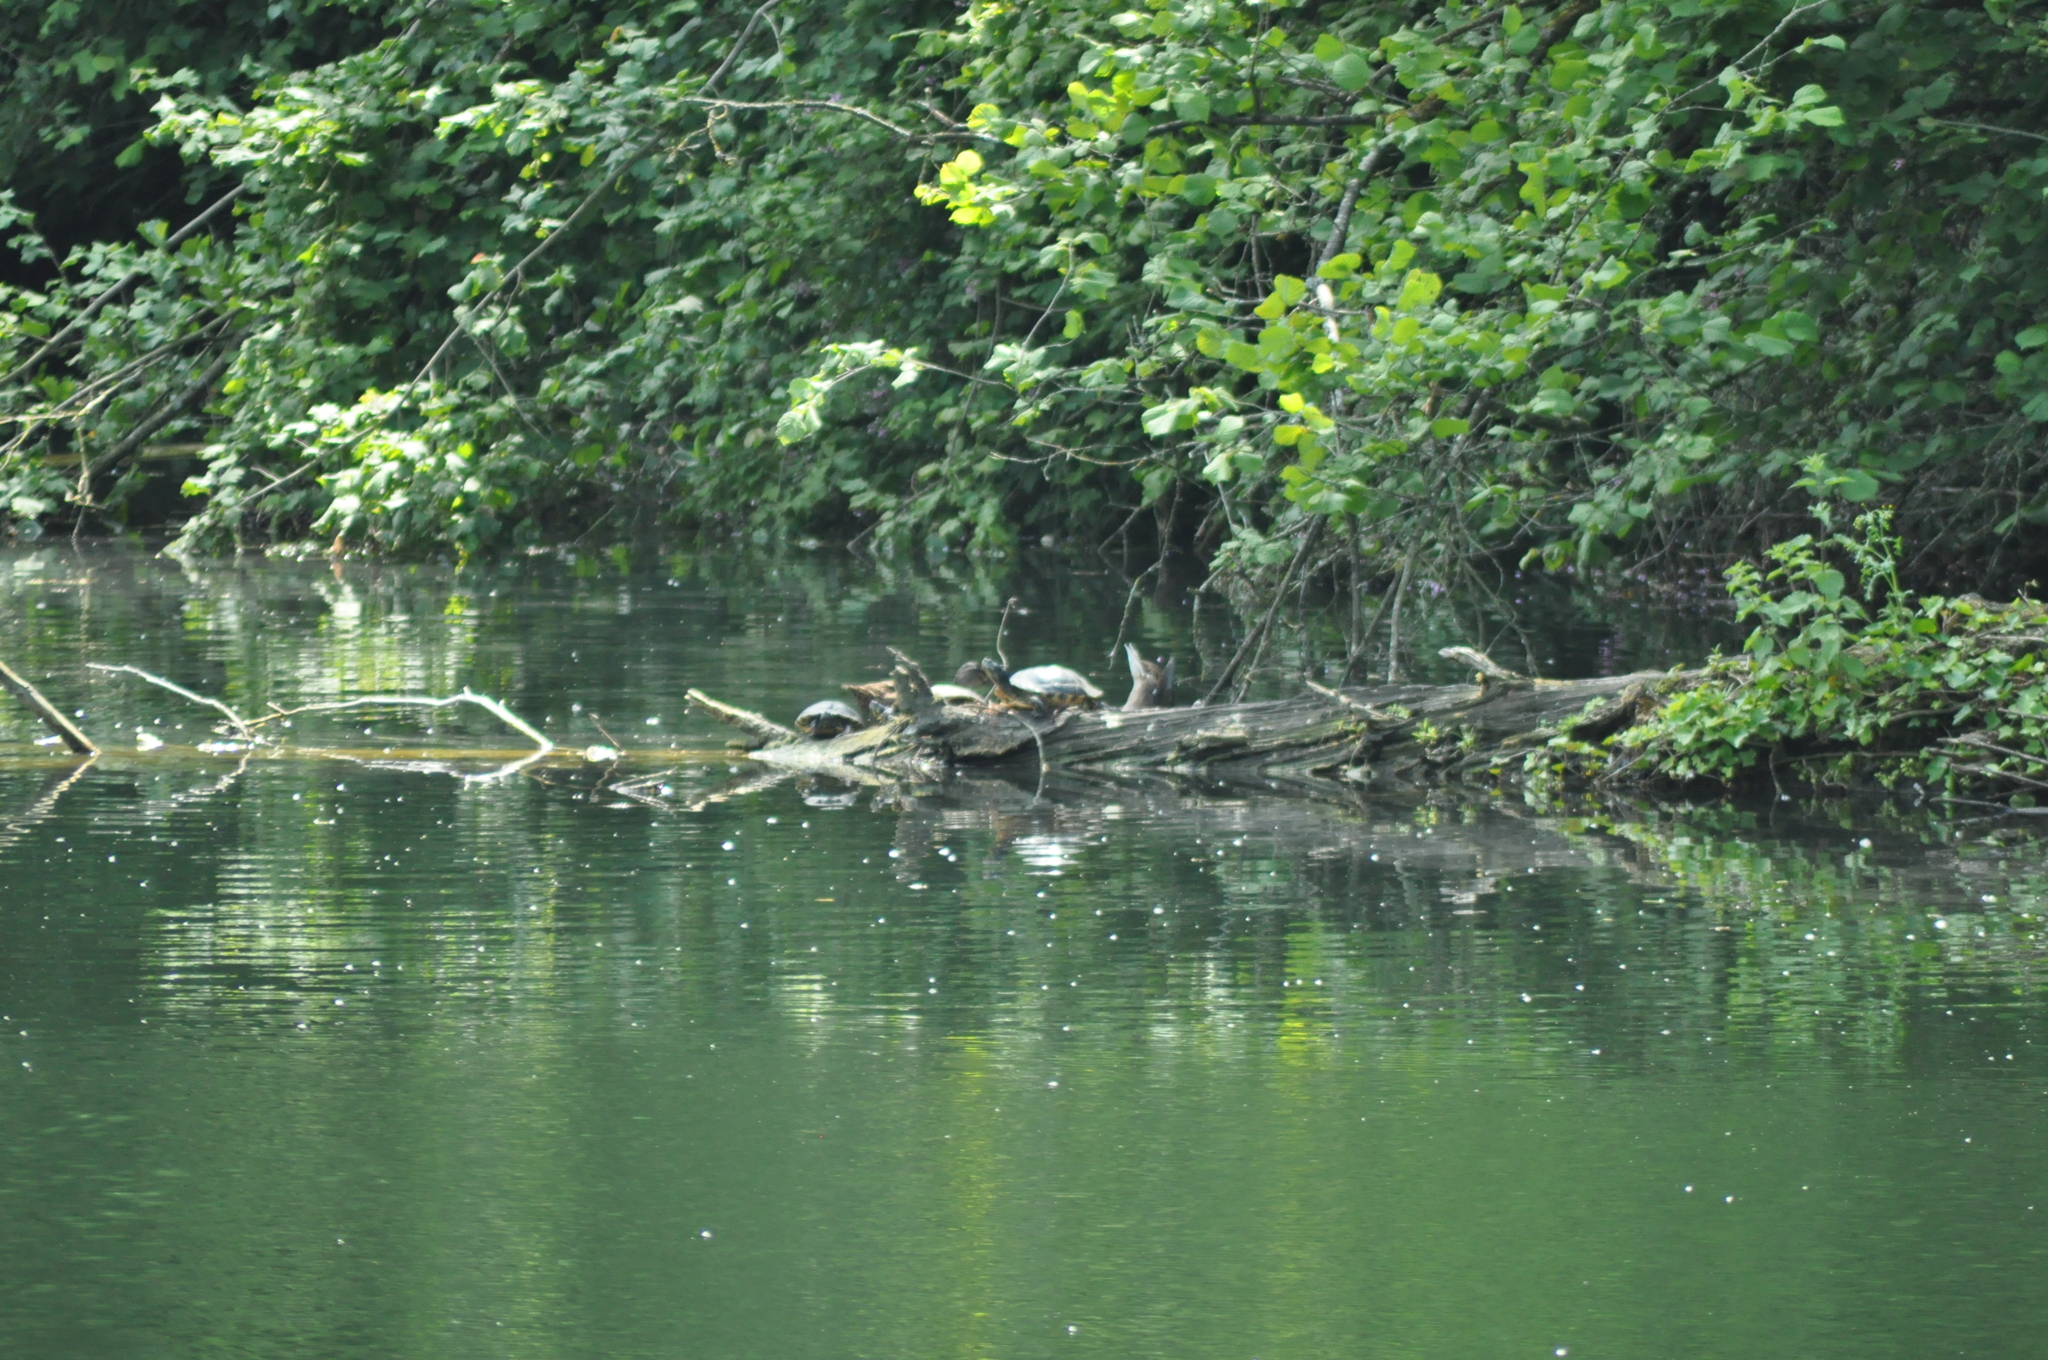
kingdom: Animalia
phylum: Chordata
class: Testudines
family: Emydidae
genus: Trachemys
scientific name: Trachemys scripta
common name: Slider
